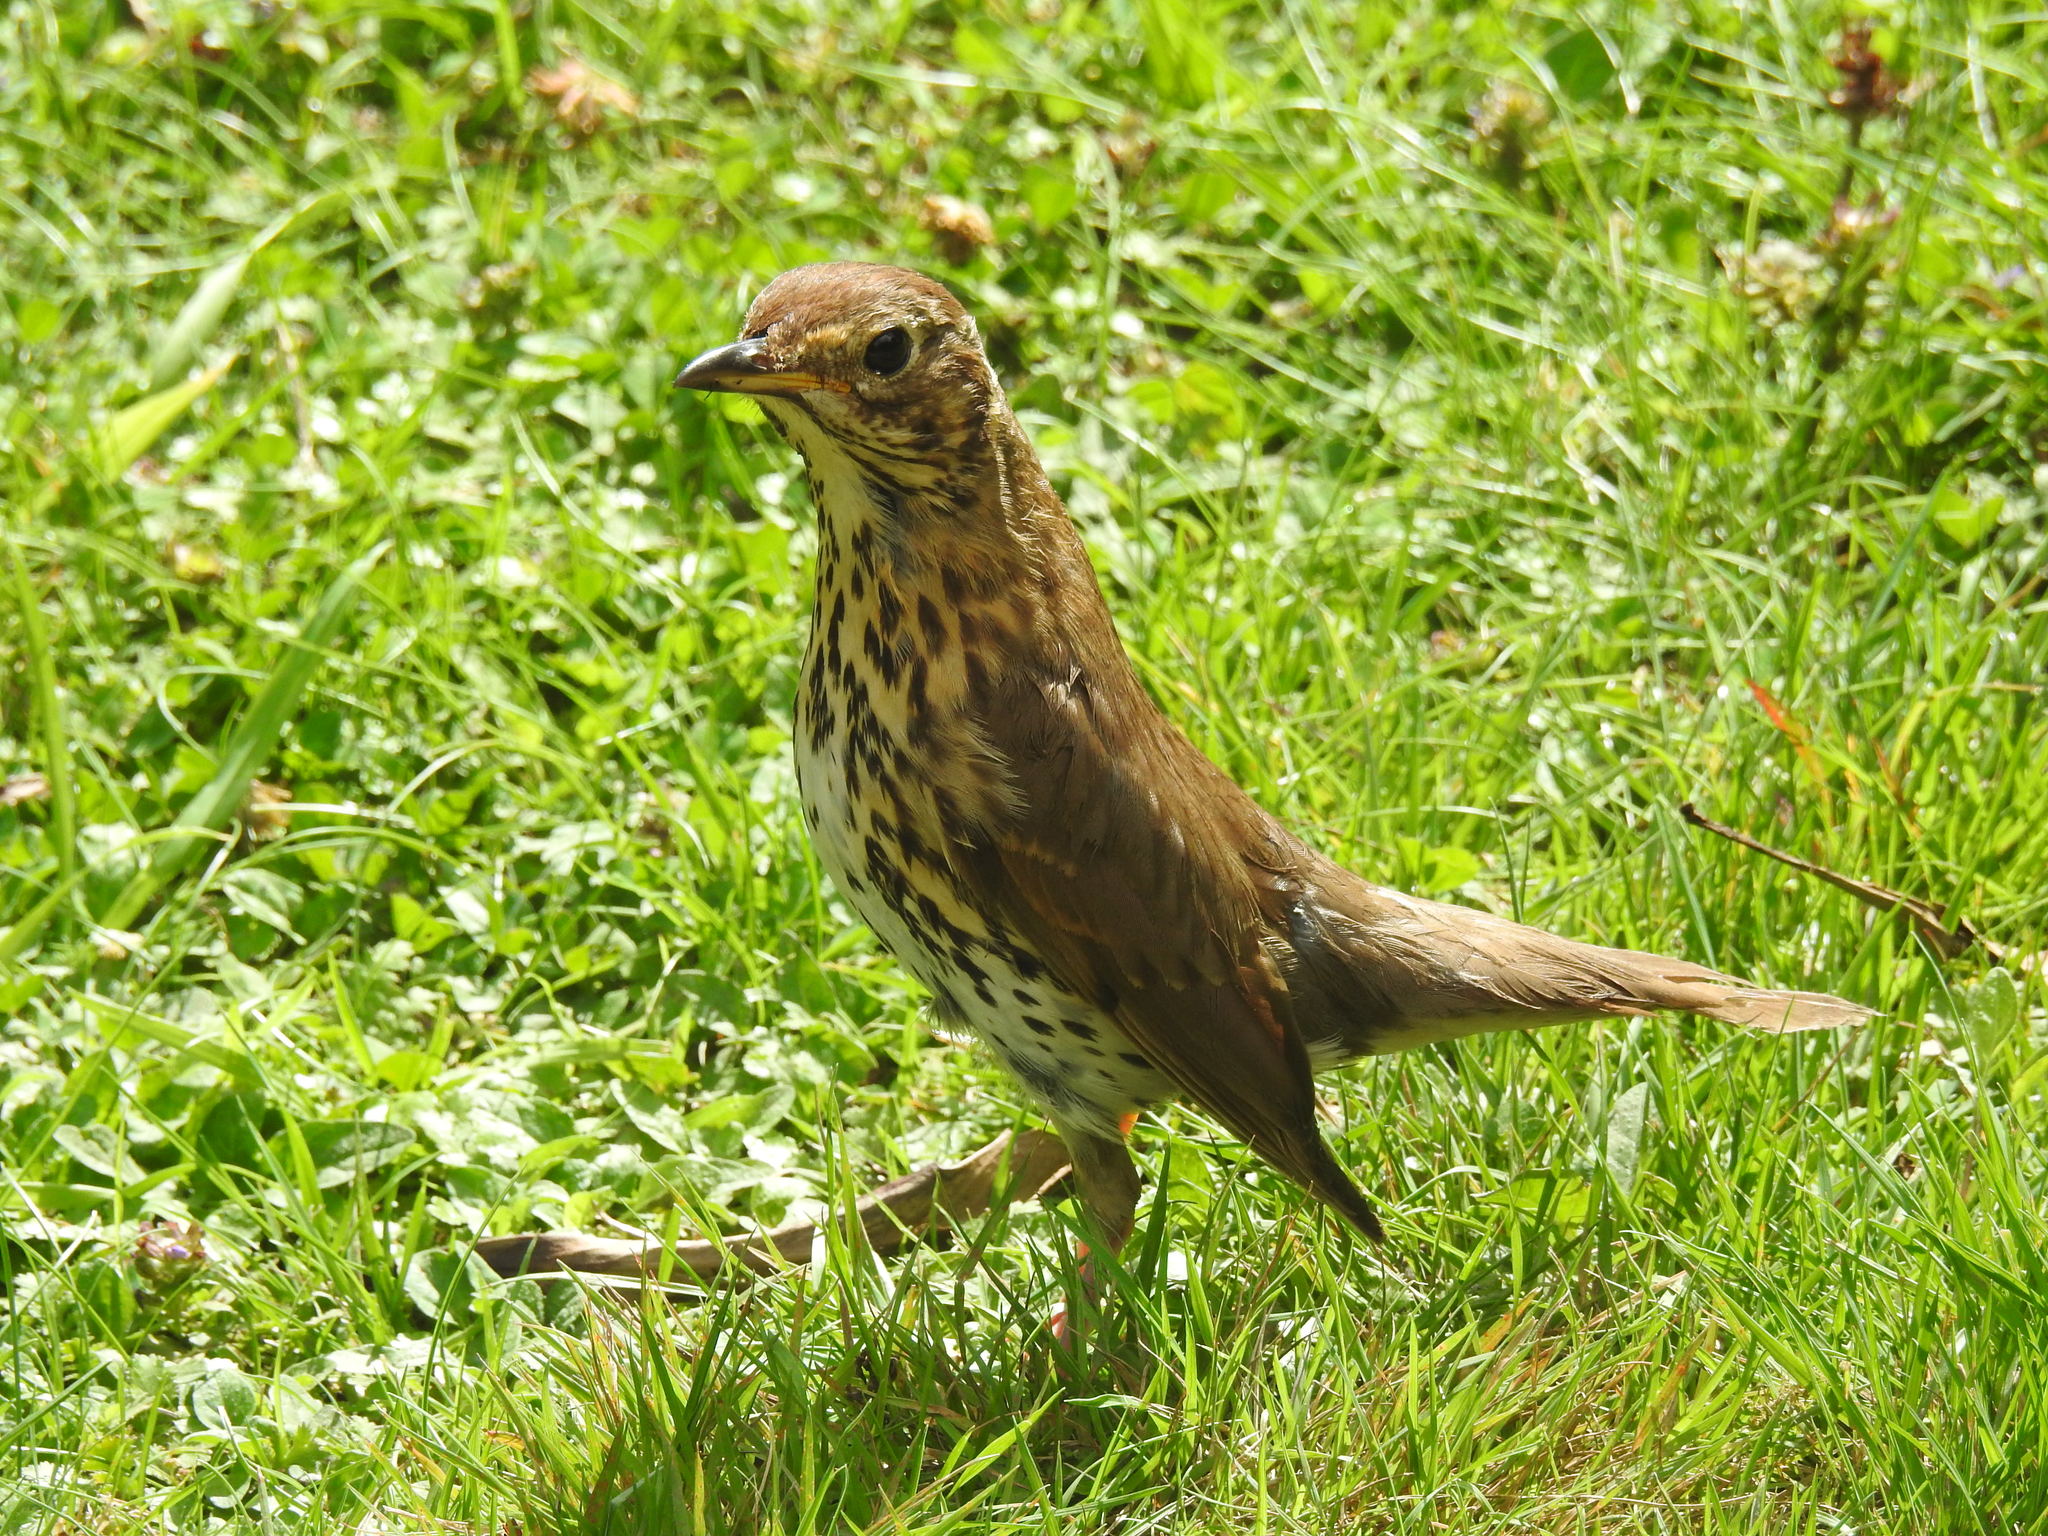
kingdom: Animalia
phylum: Chordata
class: Aves
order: Passeriformes
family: Turdidae
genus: Turdus
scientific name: Turdus philomelos
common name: Song thrush
